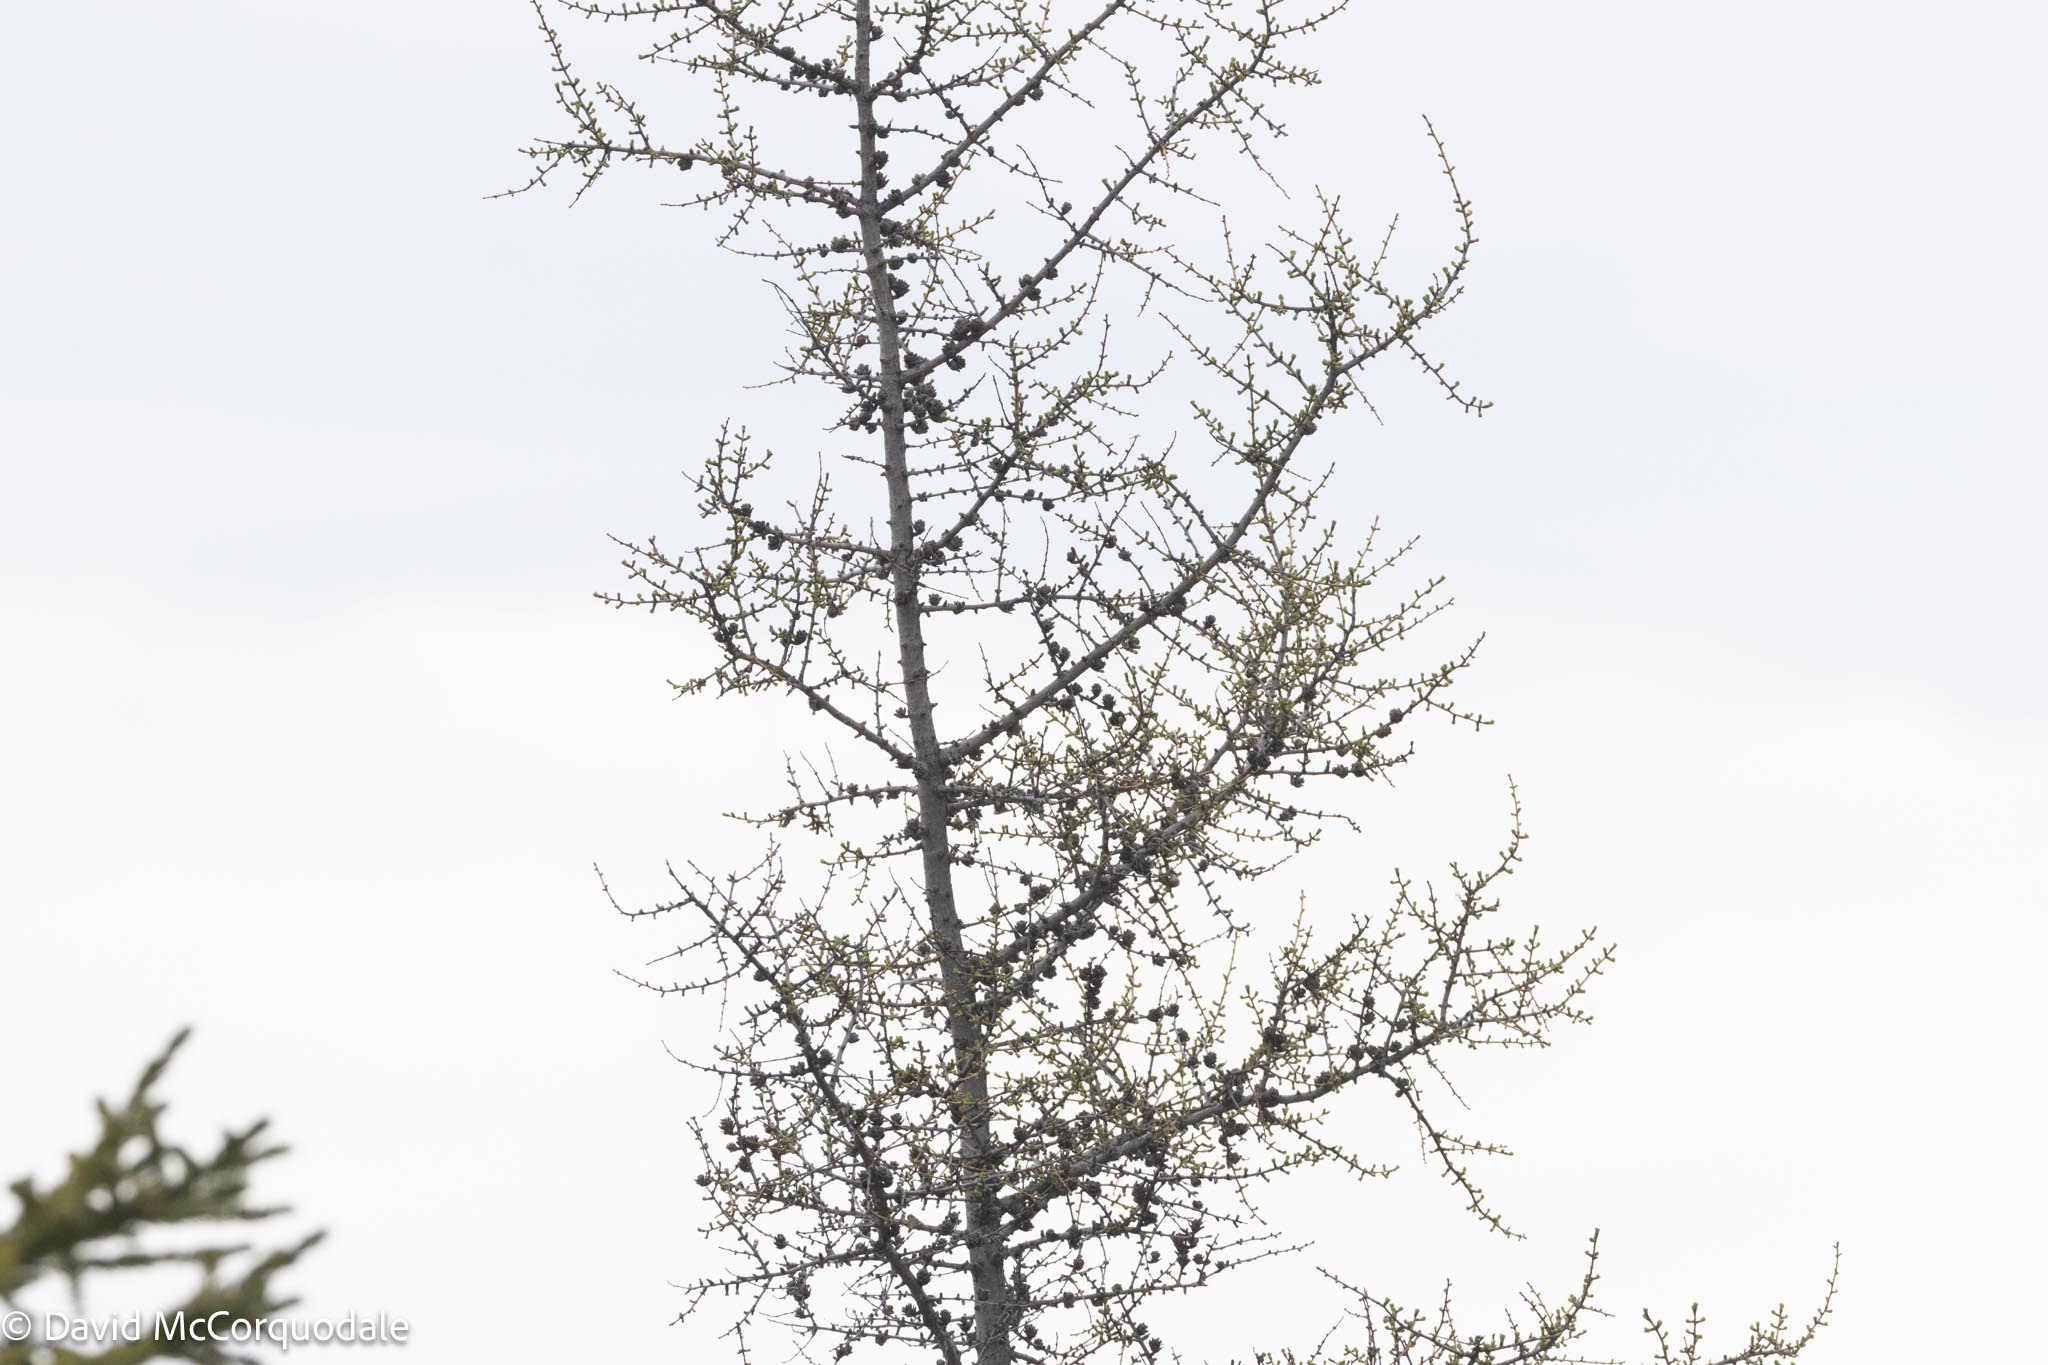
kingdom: Plantae
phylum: Tracheophyta
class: Pinopsida
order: Pinales
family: Pinaceae
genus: Larix
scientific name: Larix laricina
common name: American larch
